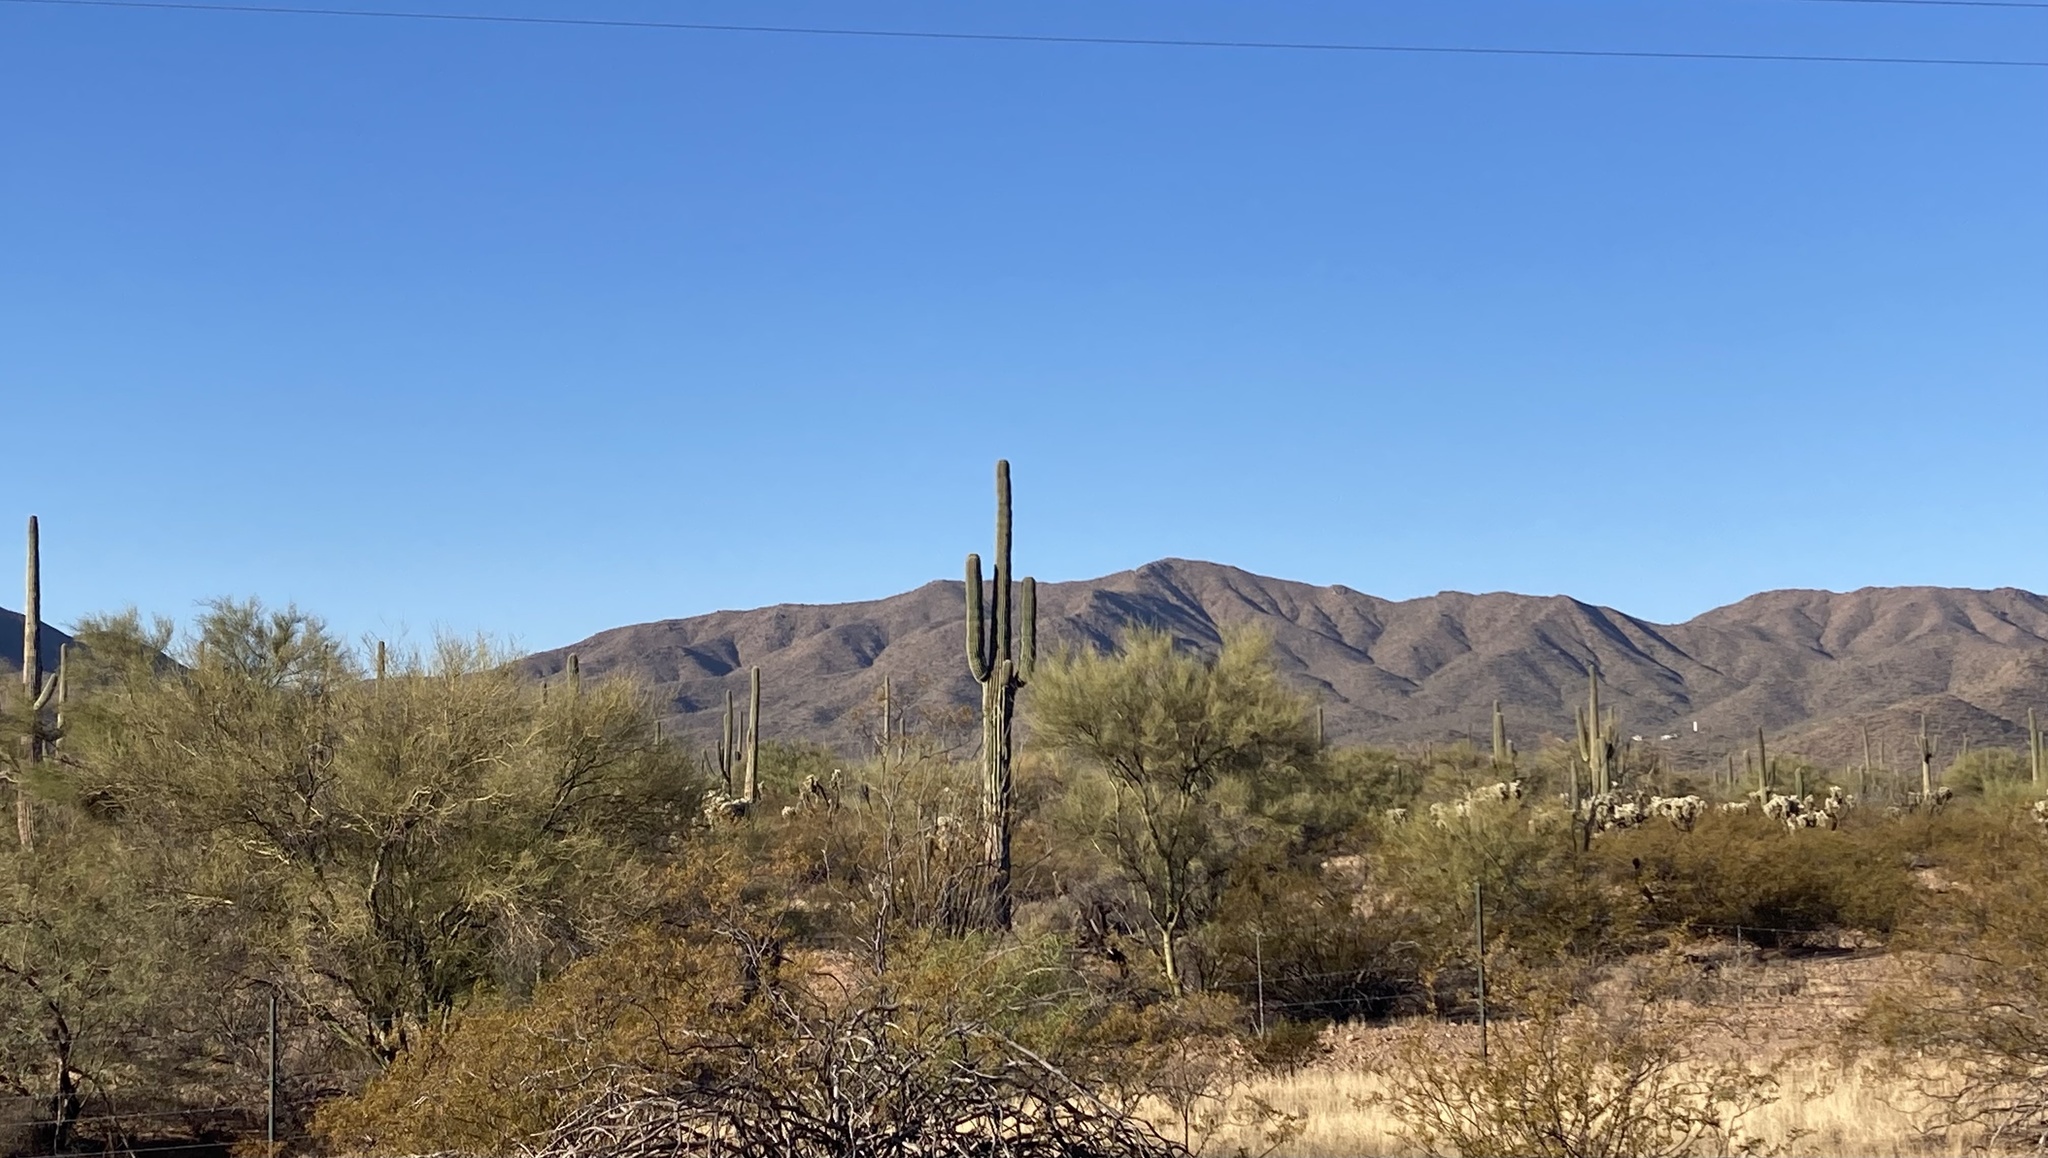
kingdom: Plantae
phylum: Tracheophyta
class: Magnoliopsida
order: Caryophyllales
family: Cactaceae
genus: Carnegiea
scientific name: Carnegiea gigantea
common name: Saguaro
